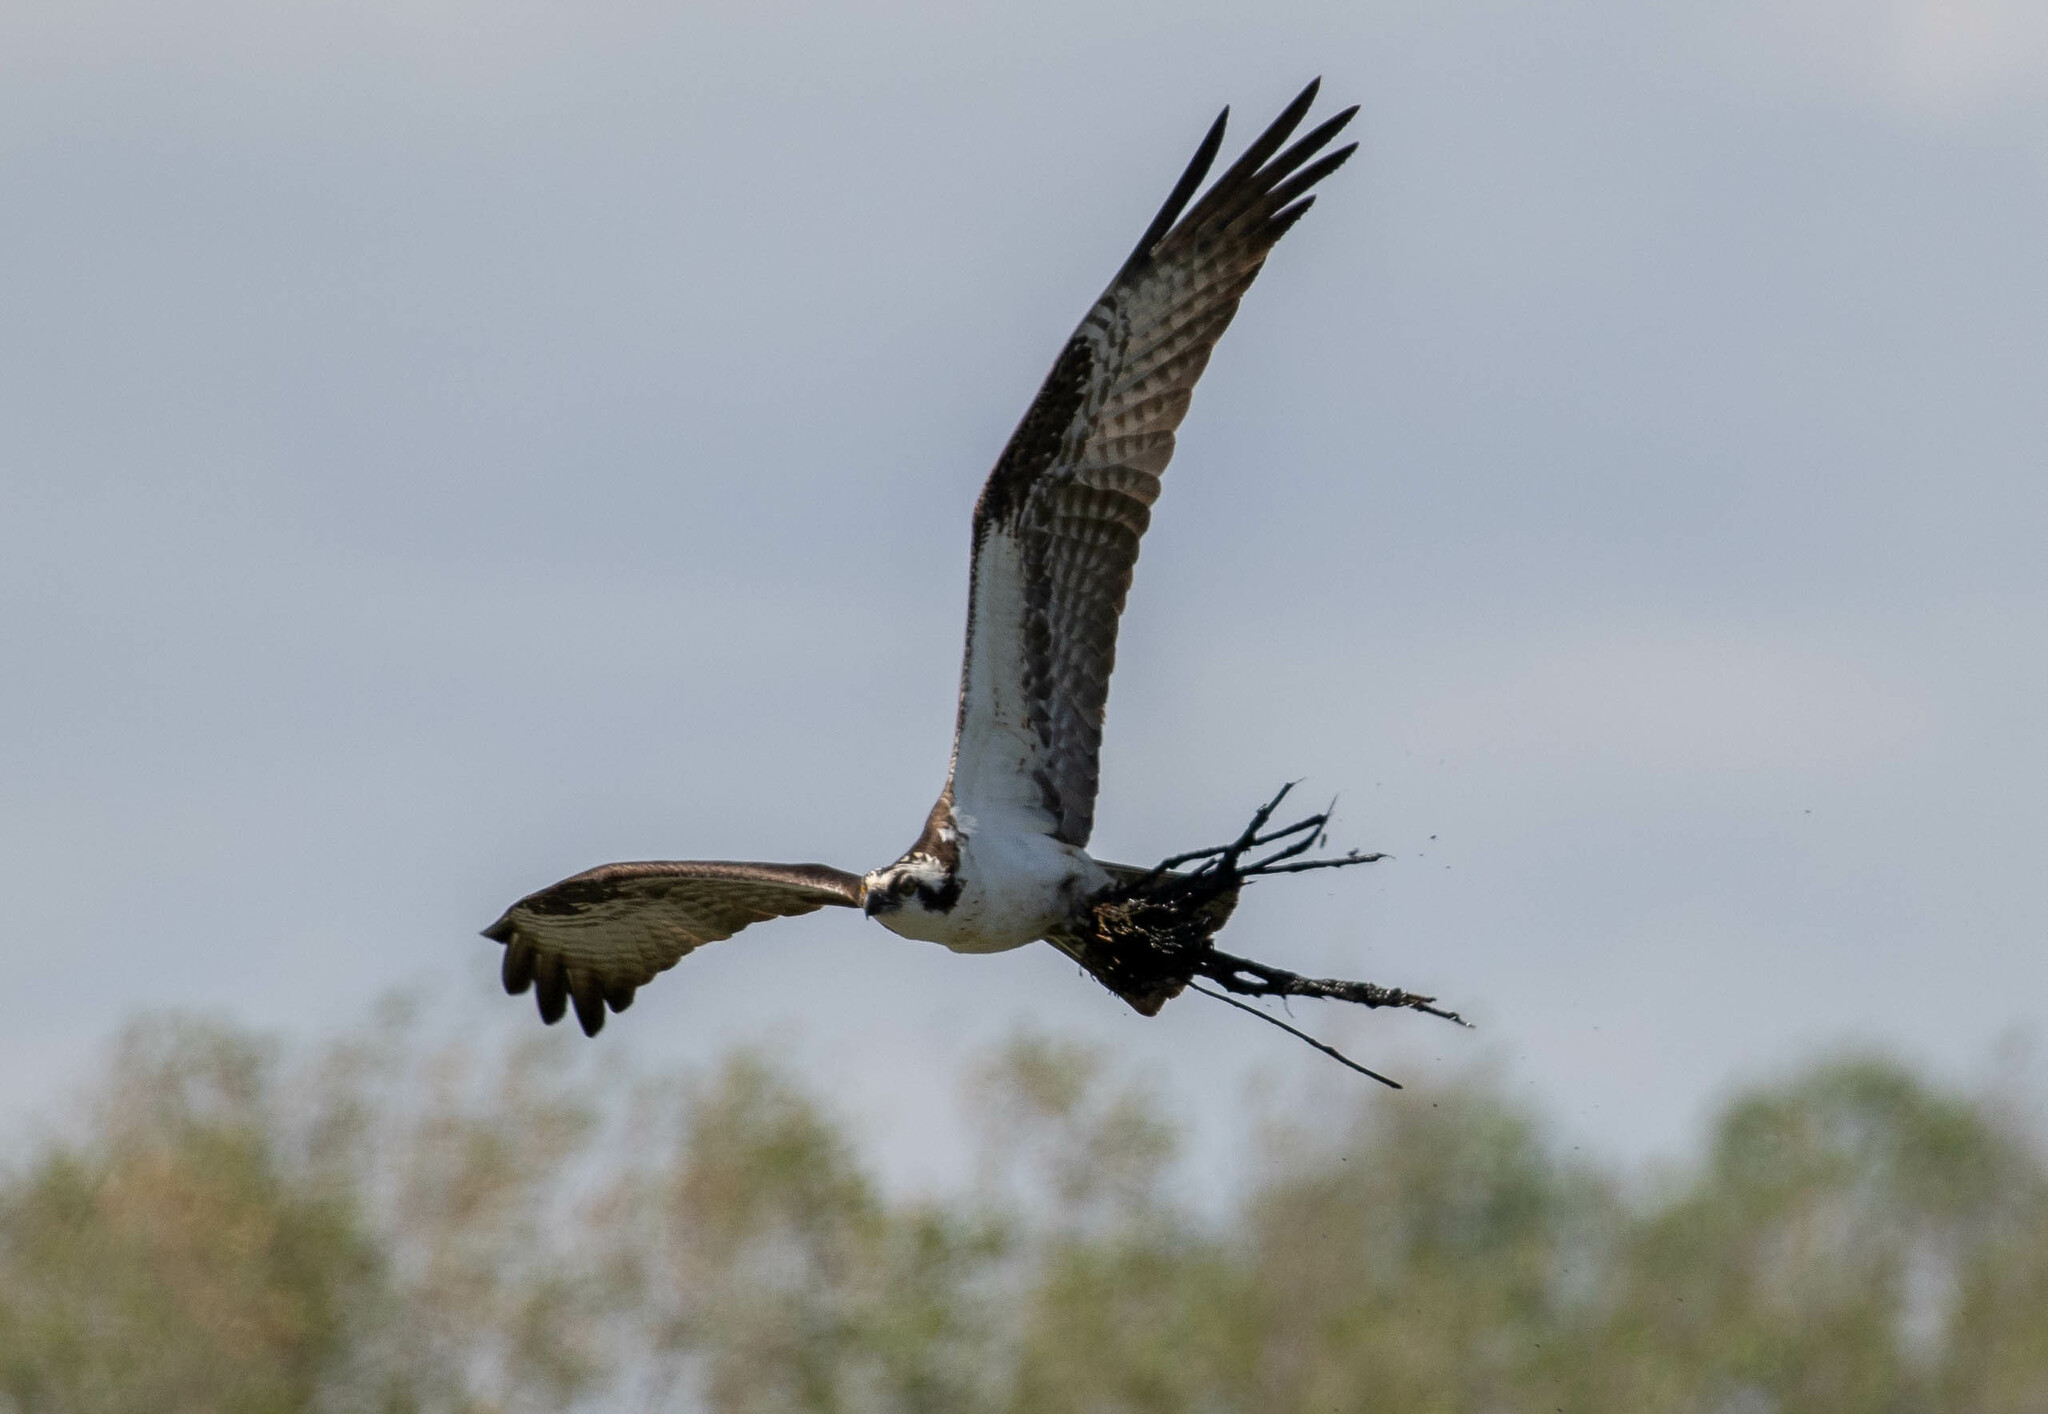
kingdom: Animalia
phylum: Chordata
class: Aves
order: Accipitriformes
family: Pandionidae
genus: Pandion
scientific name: Pandion haliaetus
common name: Osprey
